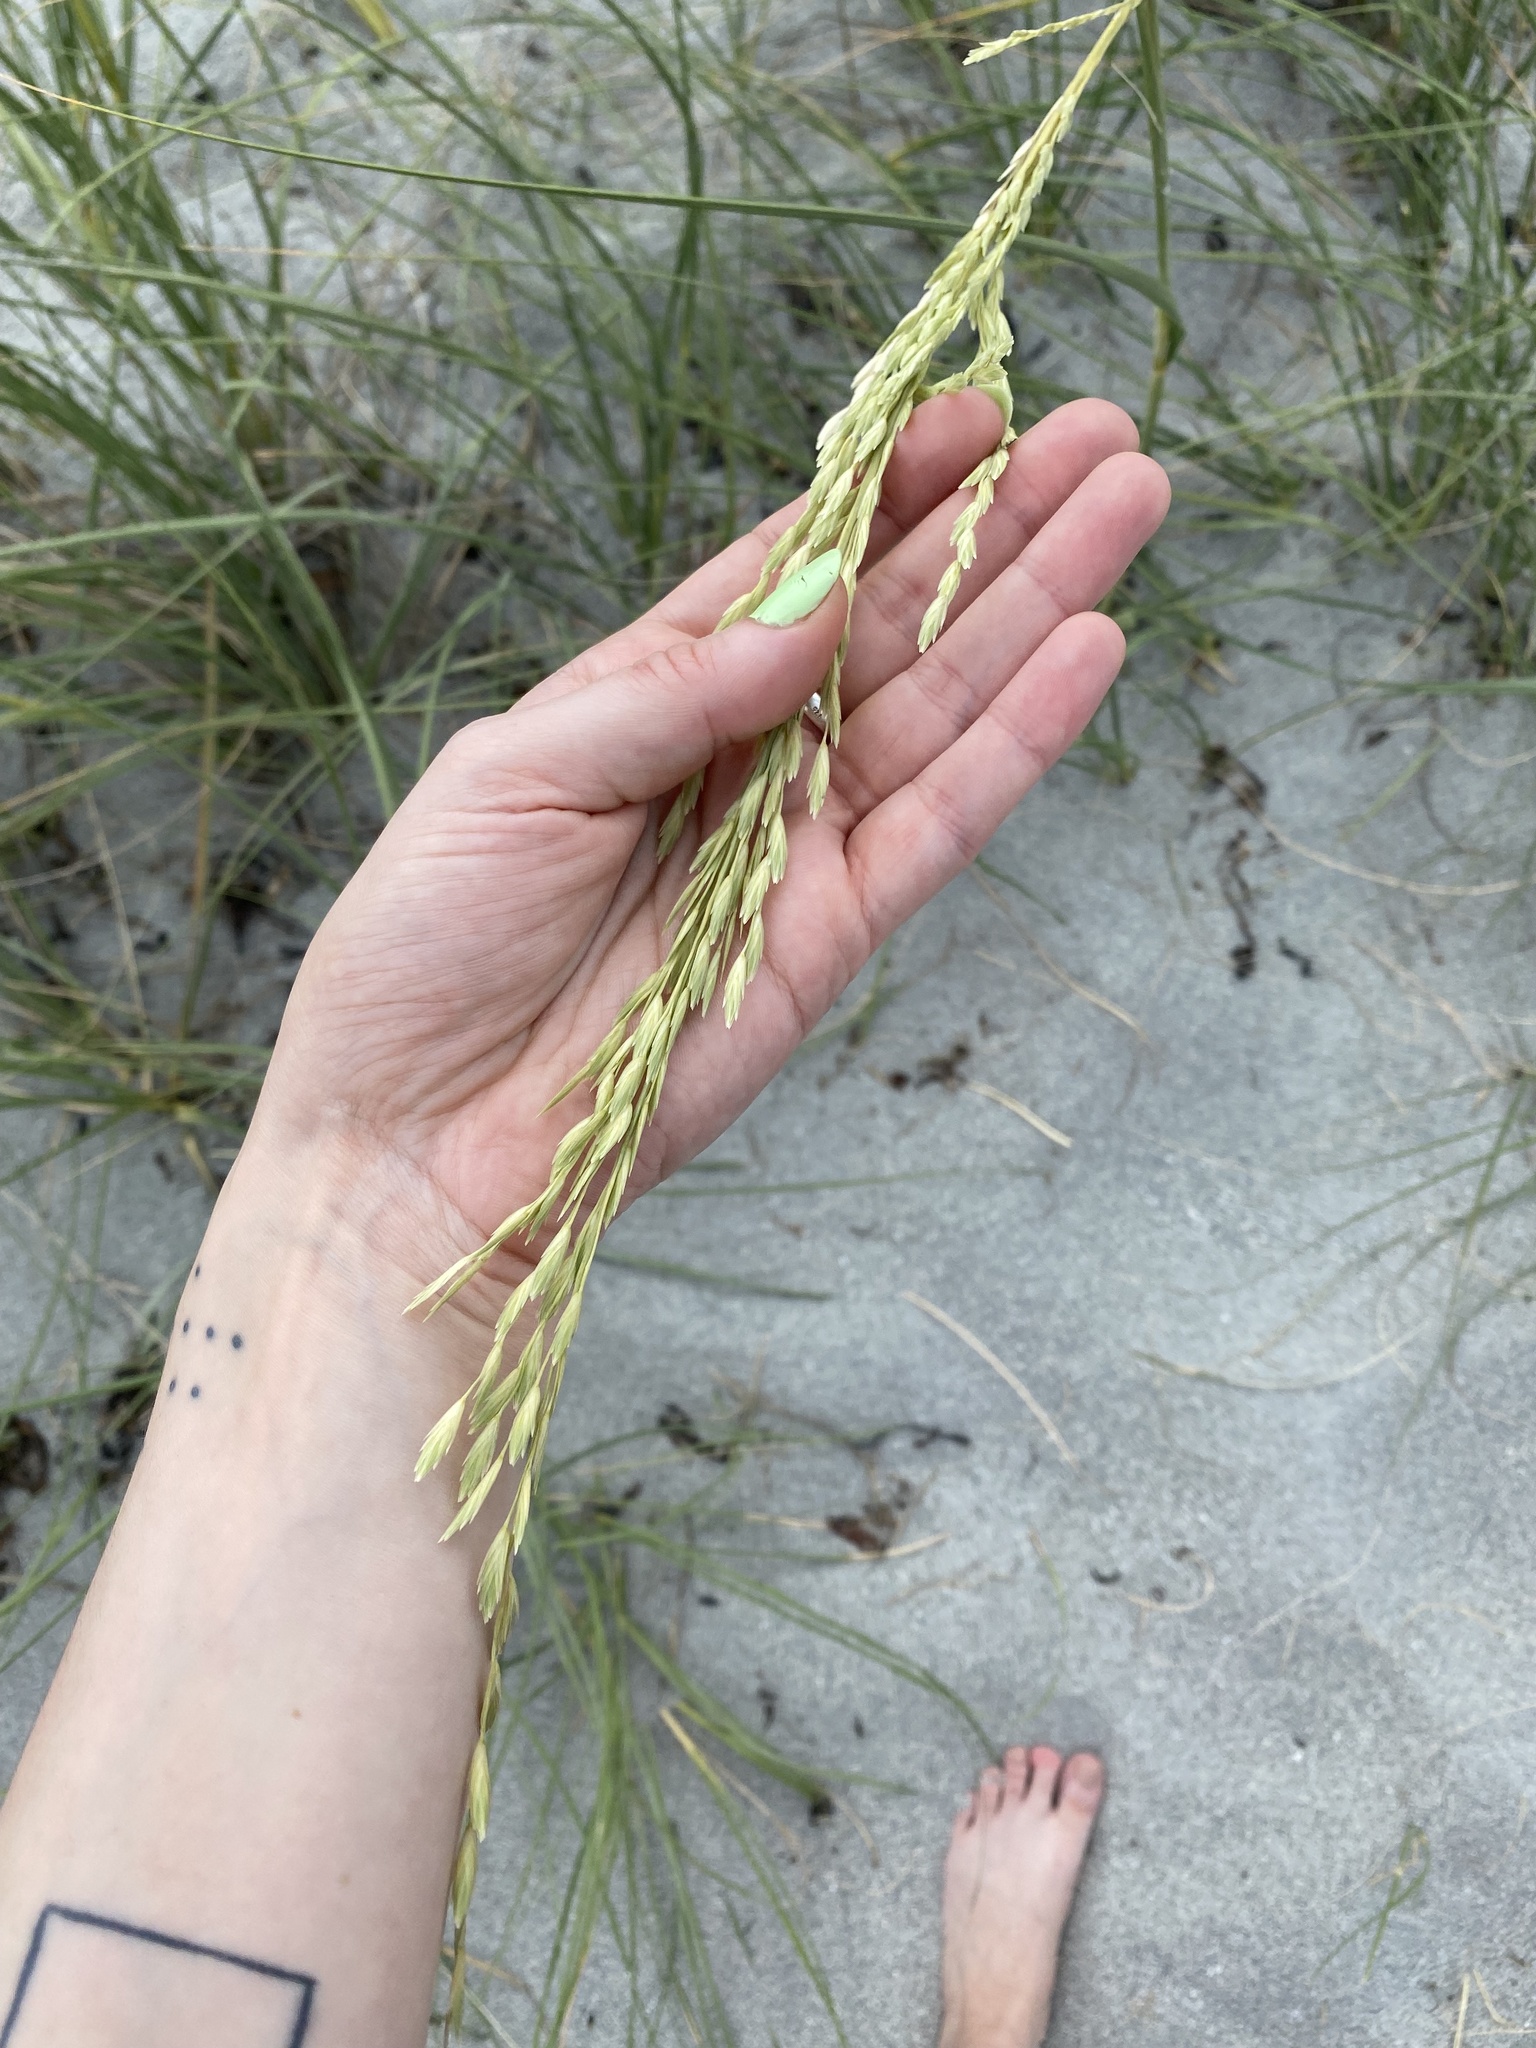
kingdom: Plantae
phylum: Tracheophyta
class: Liliopsida
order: Poales
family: Poaceae
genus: Uniola
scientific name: Uniola paniculata
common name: Seaside-oats
